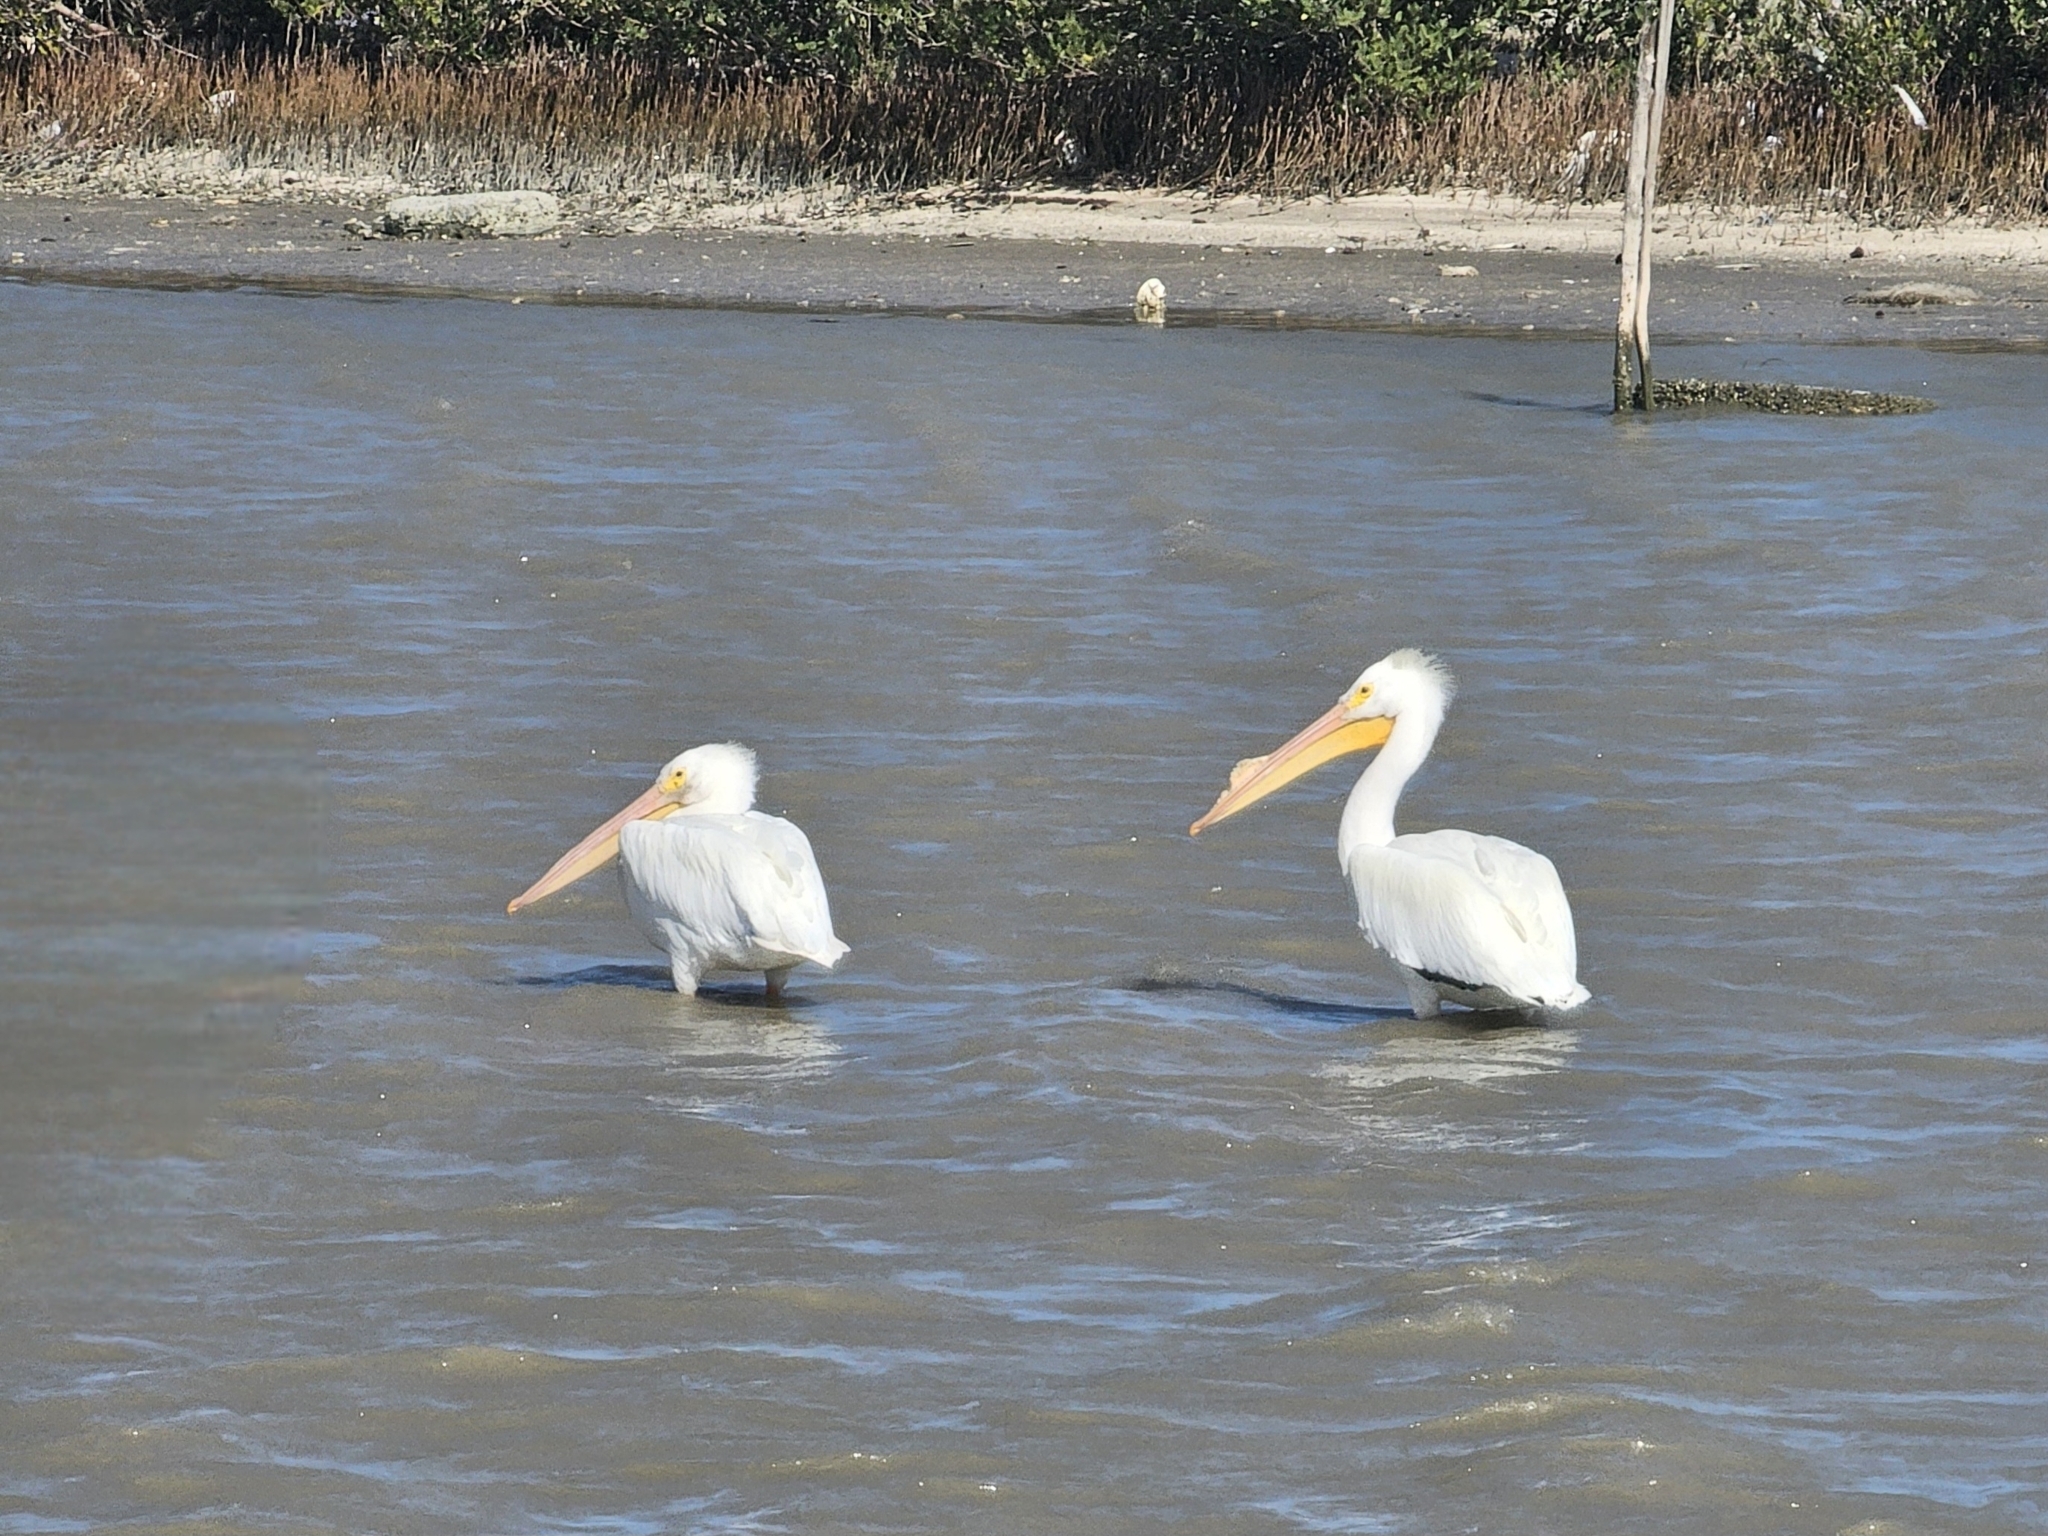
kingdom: Animalia
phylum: Chordata
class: Aves
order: Pelecaniformes
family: Pelecanidae
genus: Pelecanus
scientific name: Pelecanus erythrorhynchos
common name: American white pelican
